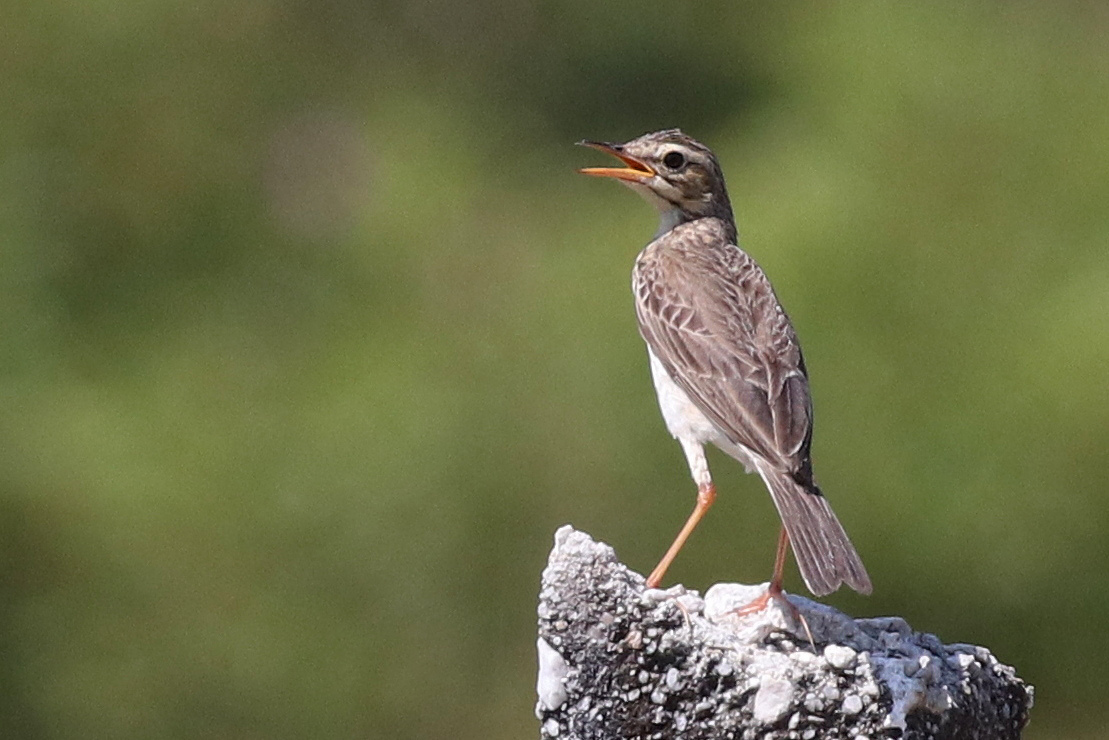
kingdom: Animalia
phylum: Chordata
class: Aves
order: Passeriformes
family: Motacillidae
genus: Anthus
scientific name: Anthus rufulus
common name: Paddyfield pipit
